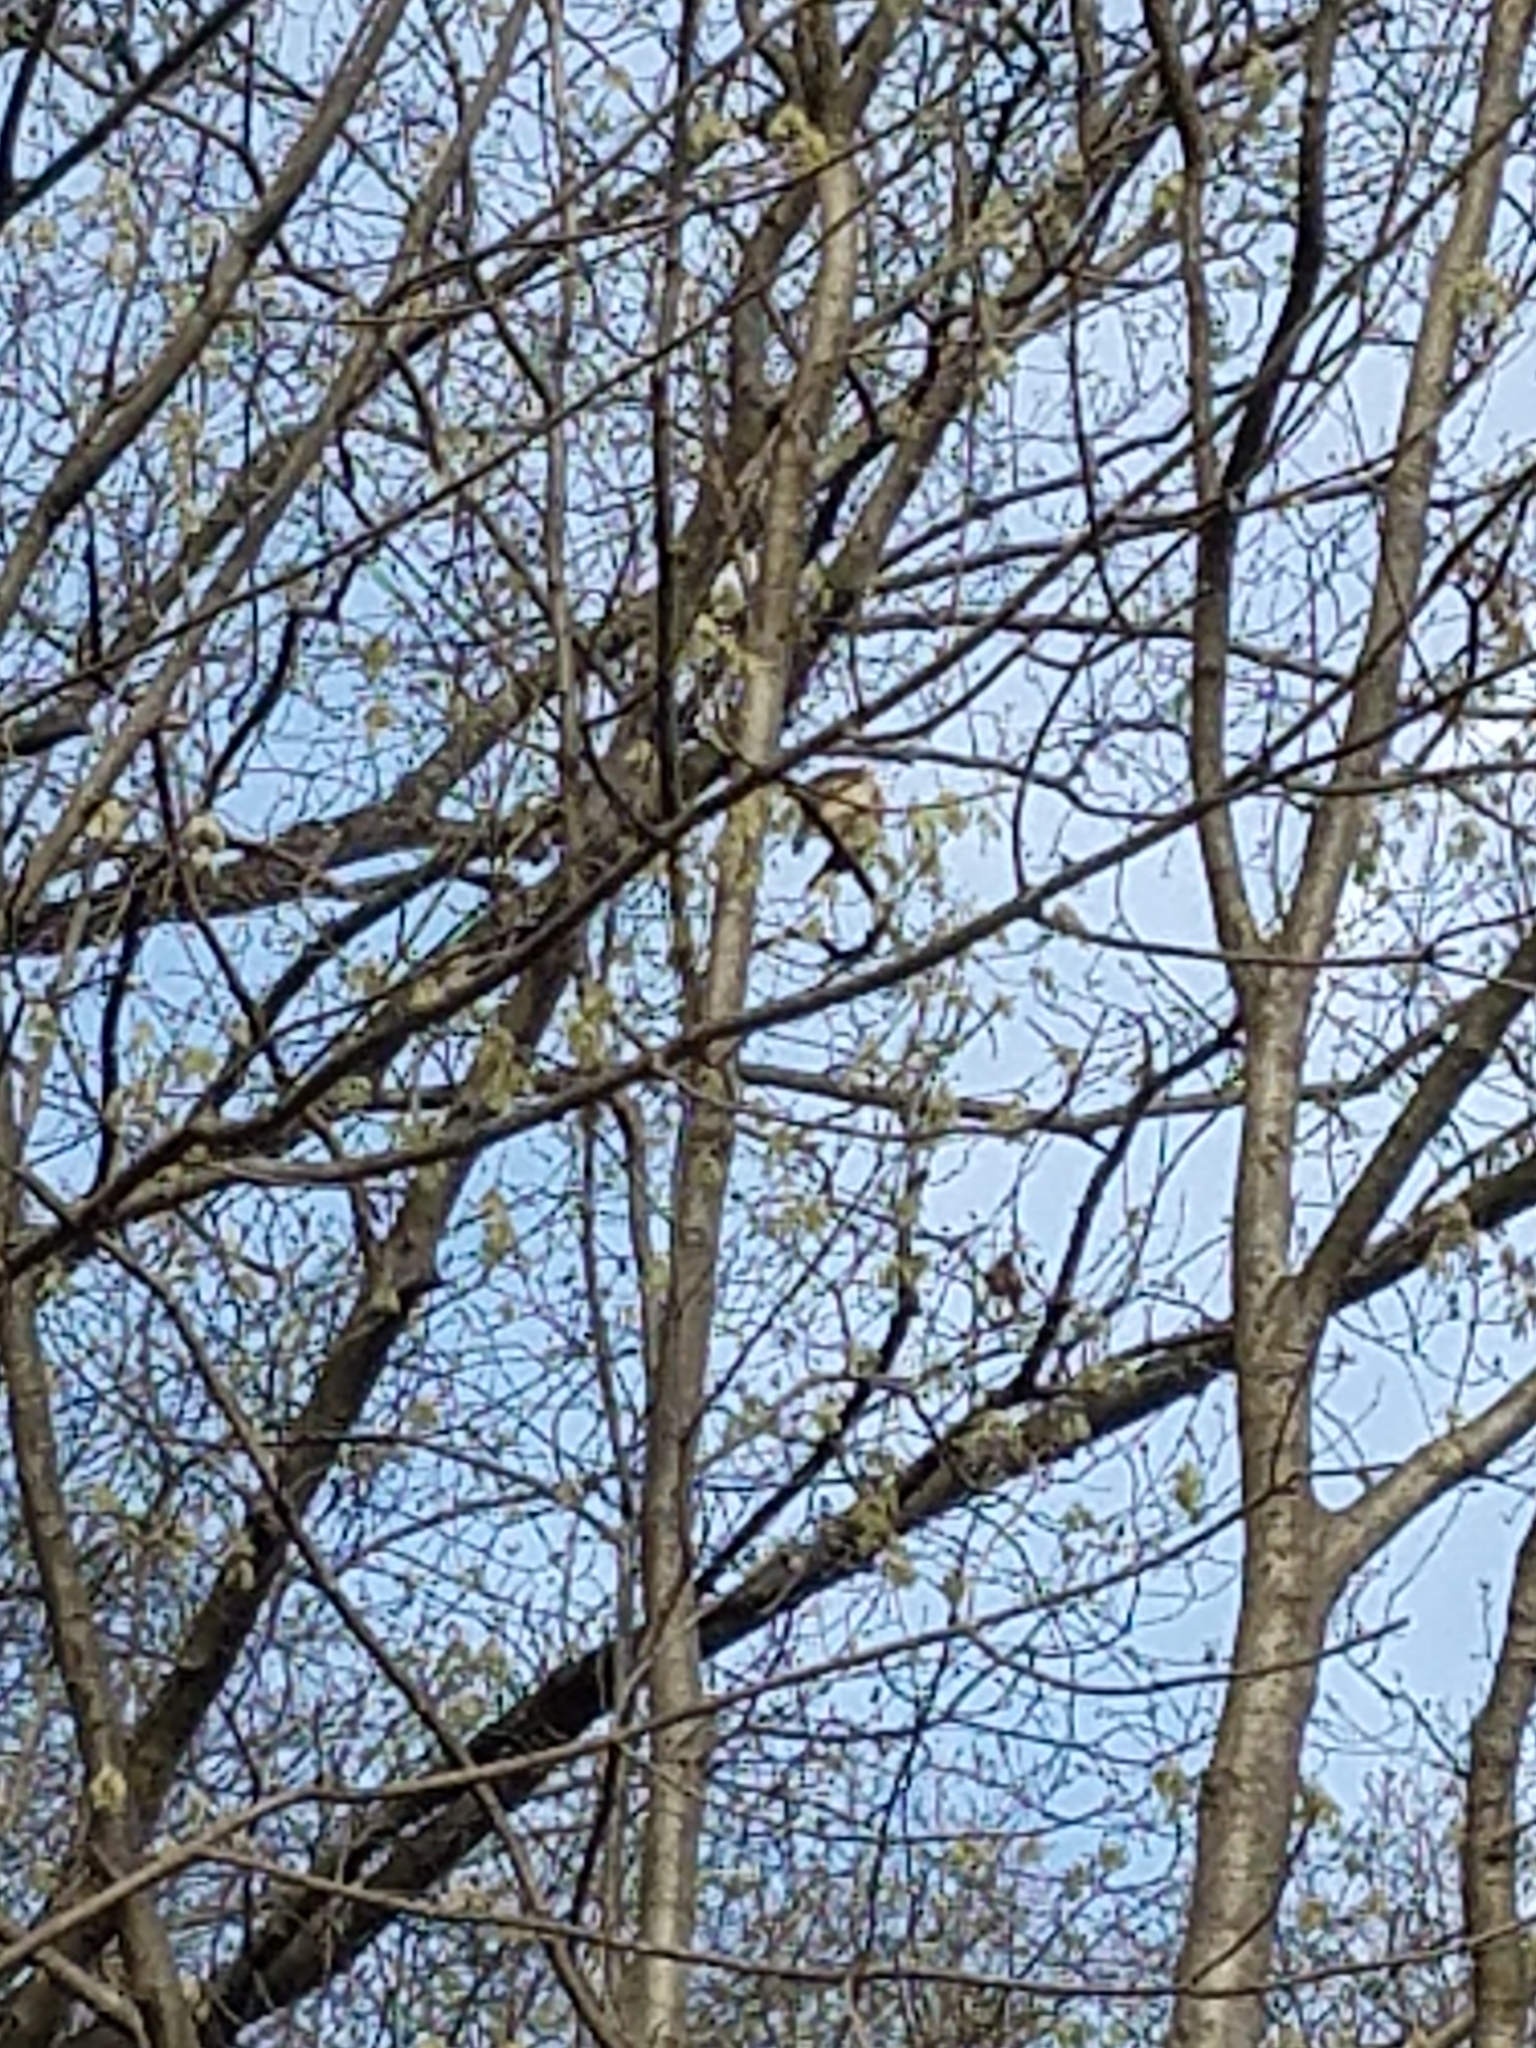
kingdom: Animalia
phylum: Chordata
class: Aves
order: Accipitriformes
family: Accipitridae
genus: Buteo
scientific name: Buteo lineatus
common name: Red-shouldered hawk
